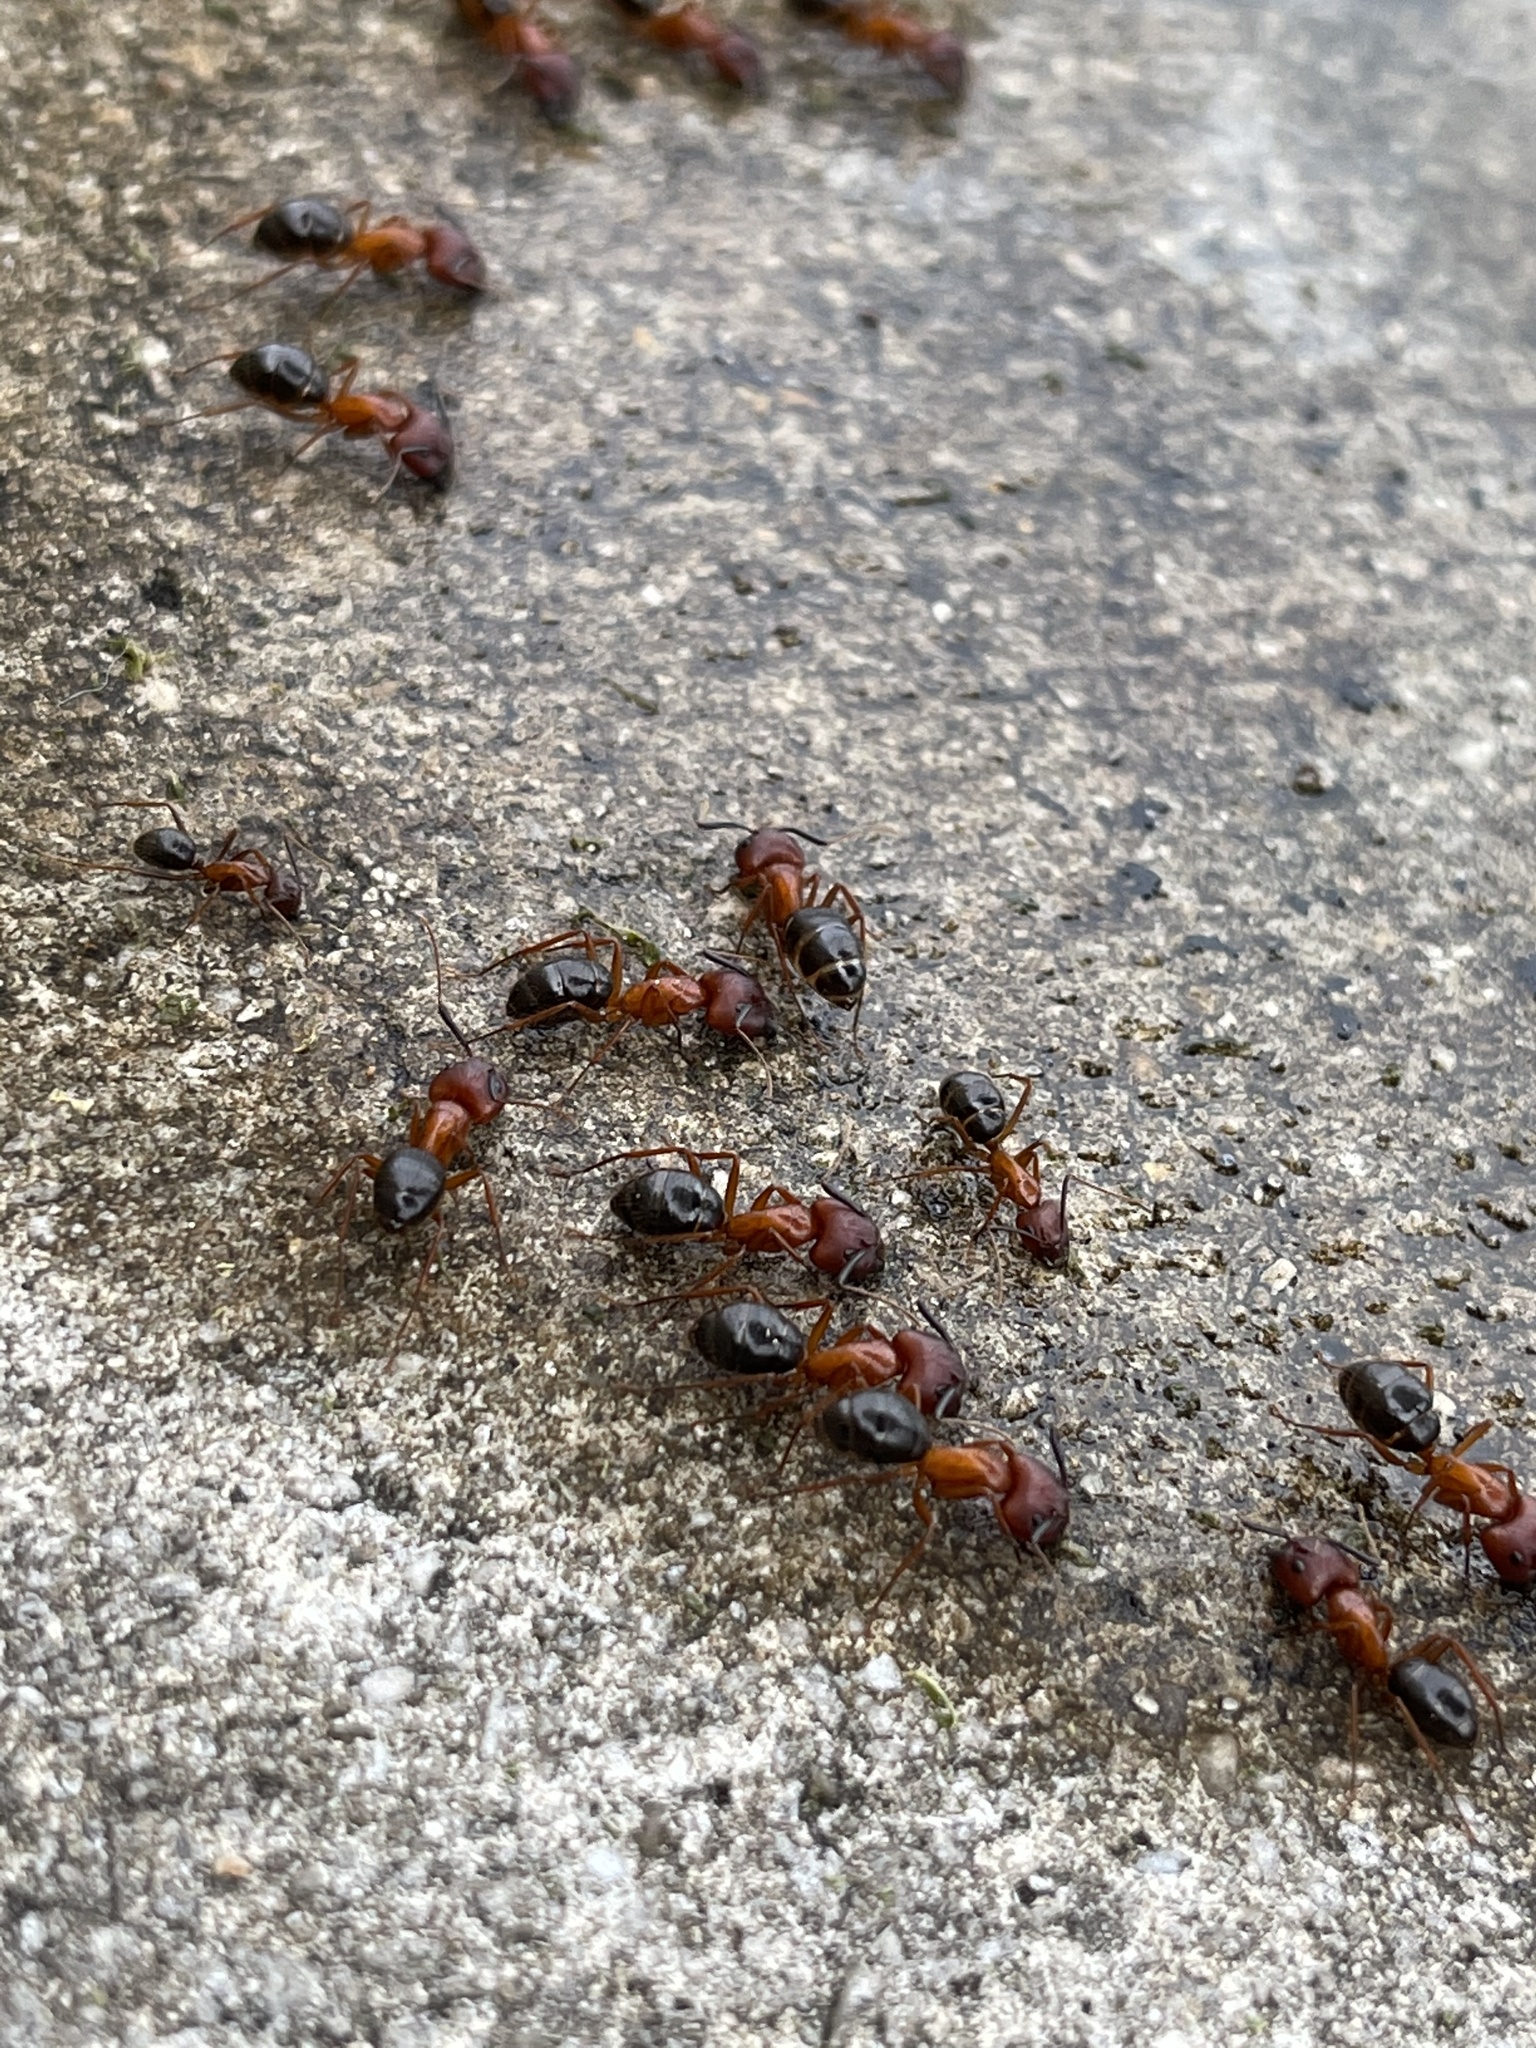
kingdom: Animalia
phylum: Arthropoda
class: Insecta
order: Hymenoptera
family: Formicidae
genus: Camponotus
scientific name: Camponotus floridanus
